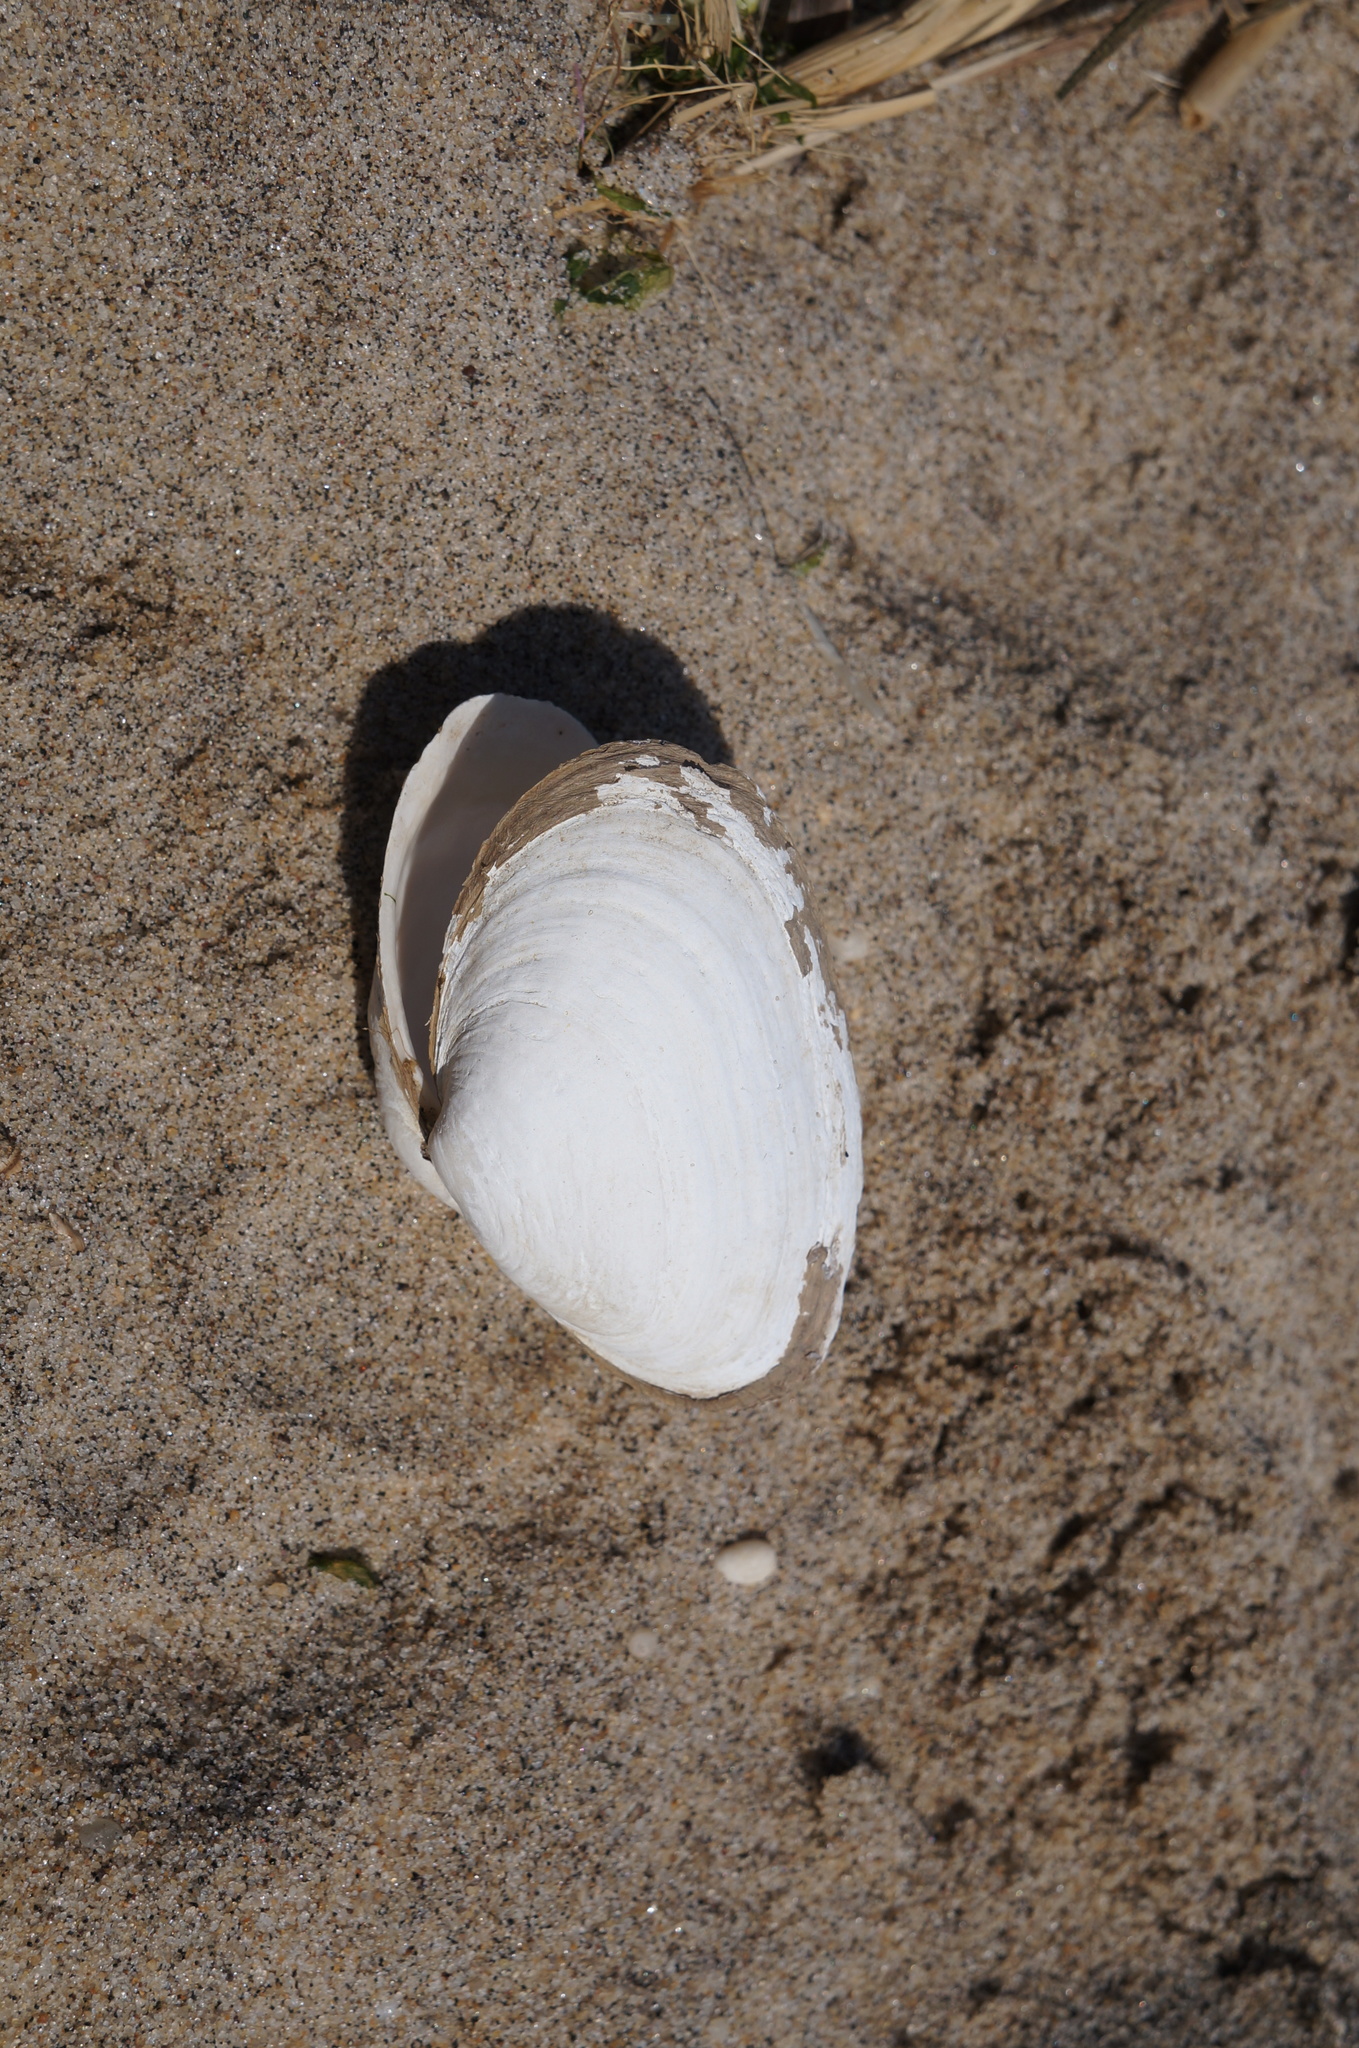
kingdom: Animalia
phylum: Mollusca
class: Bivalvia
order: Myida
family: Myidae
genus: Mya
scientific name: Mya arenaria
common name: Soft-shelled clam
